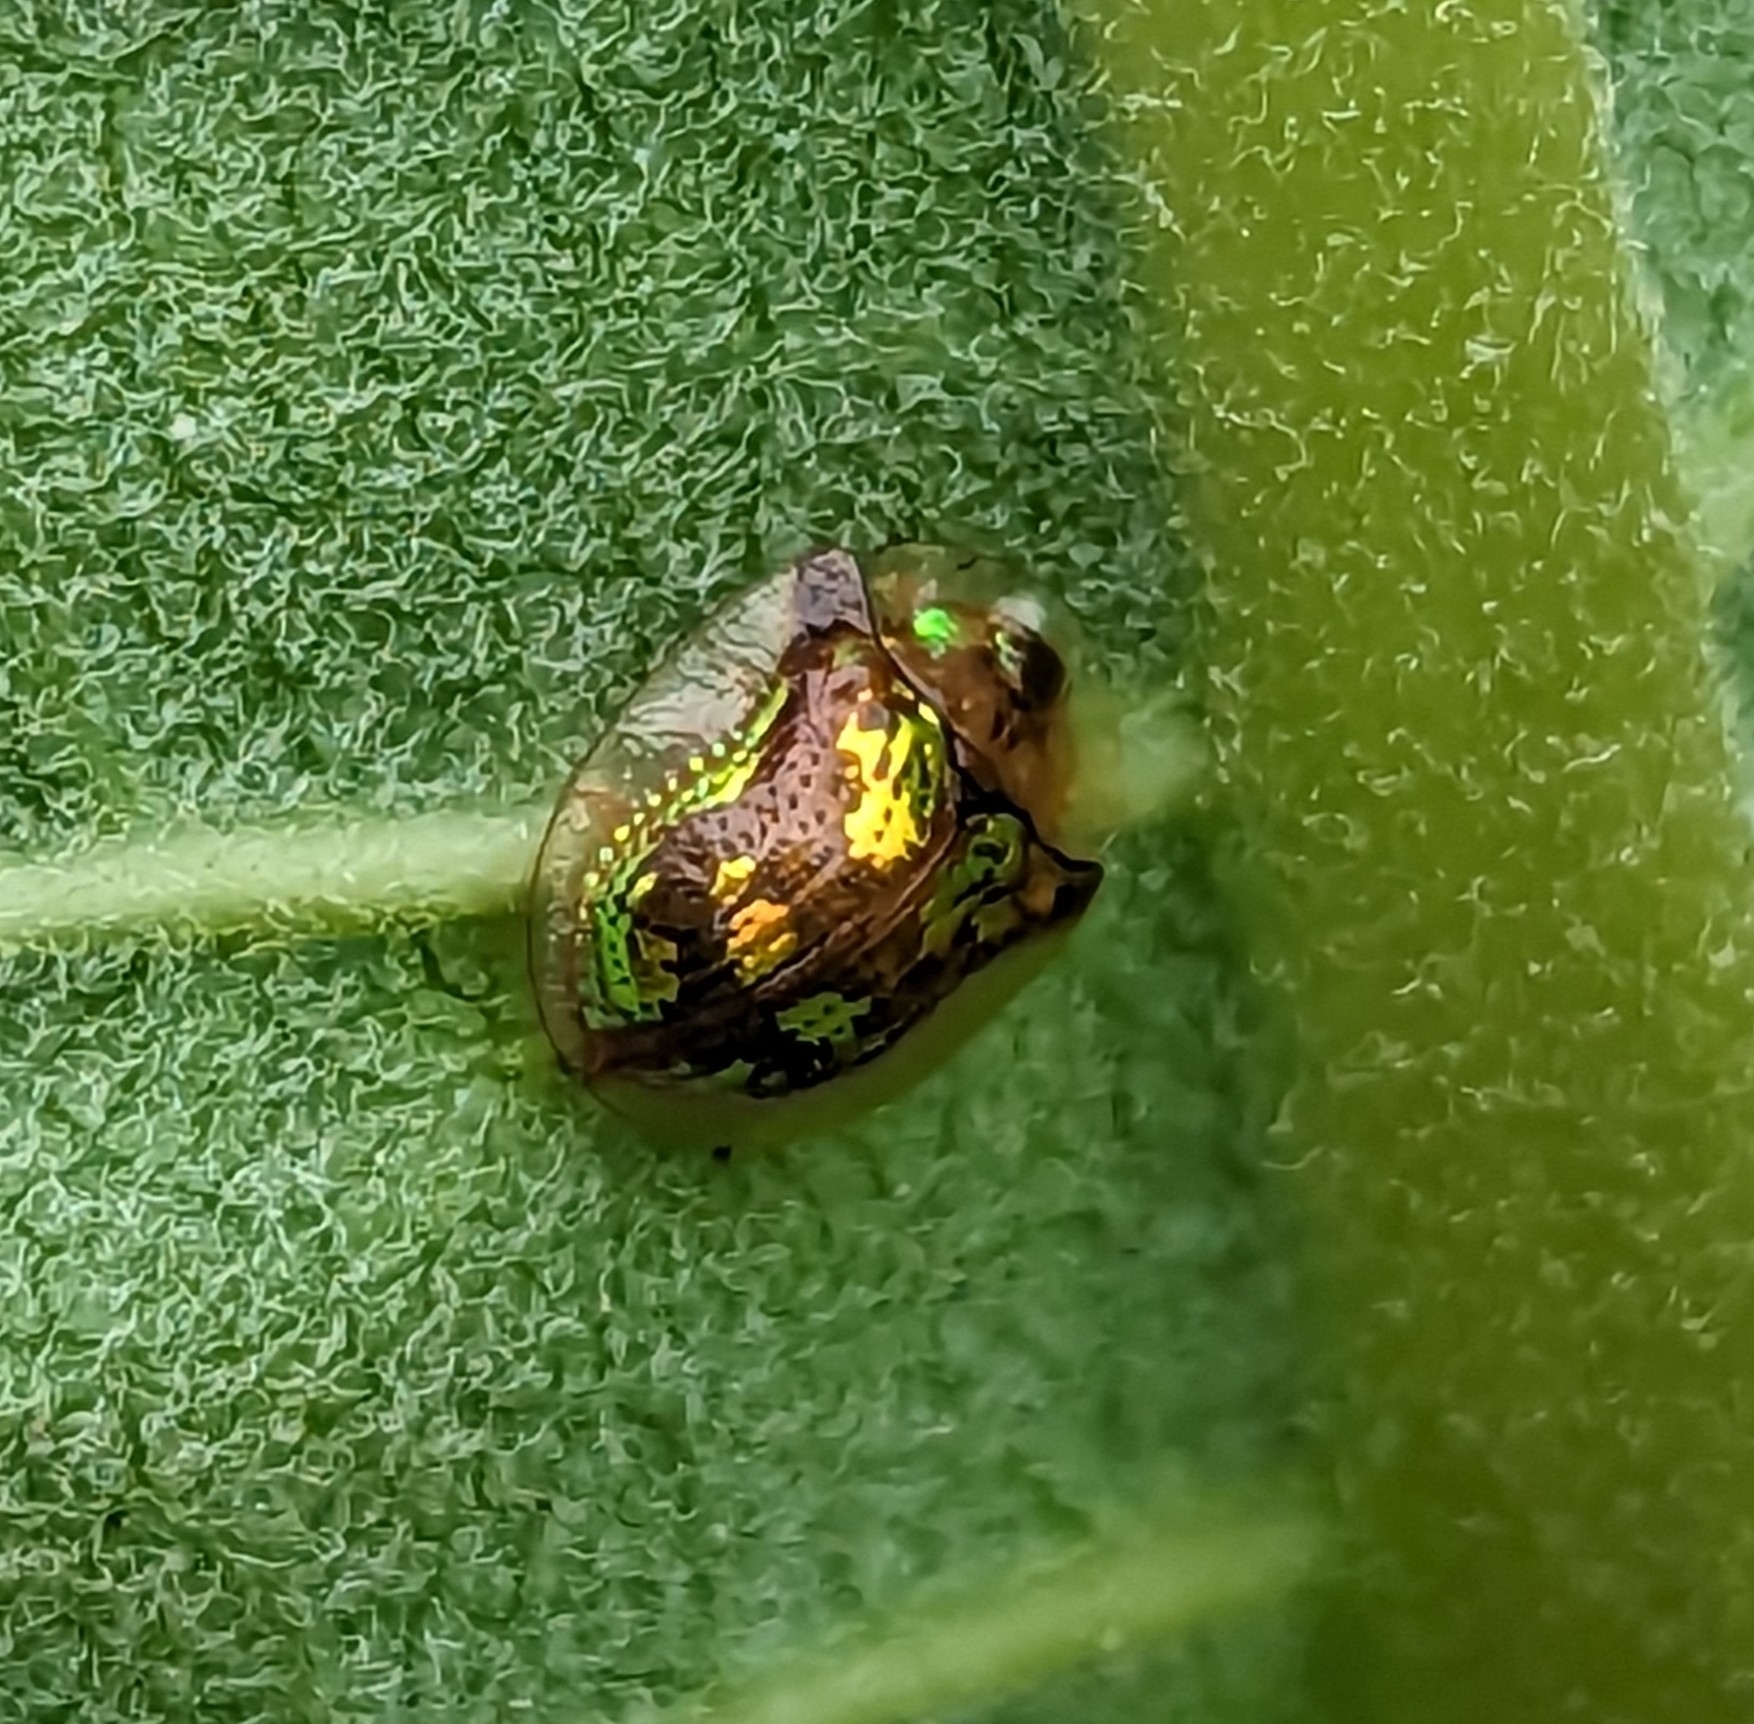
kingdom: Animalia
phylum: Arthropoda
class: Insecta
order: Coleoptera
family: Chrysomelidae
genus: Deloyala
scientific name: Deloyala guttata
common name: Mottled tortoise beetle
